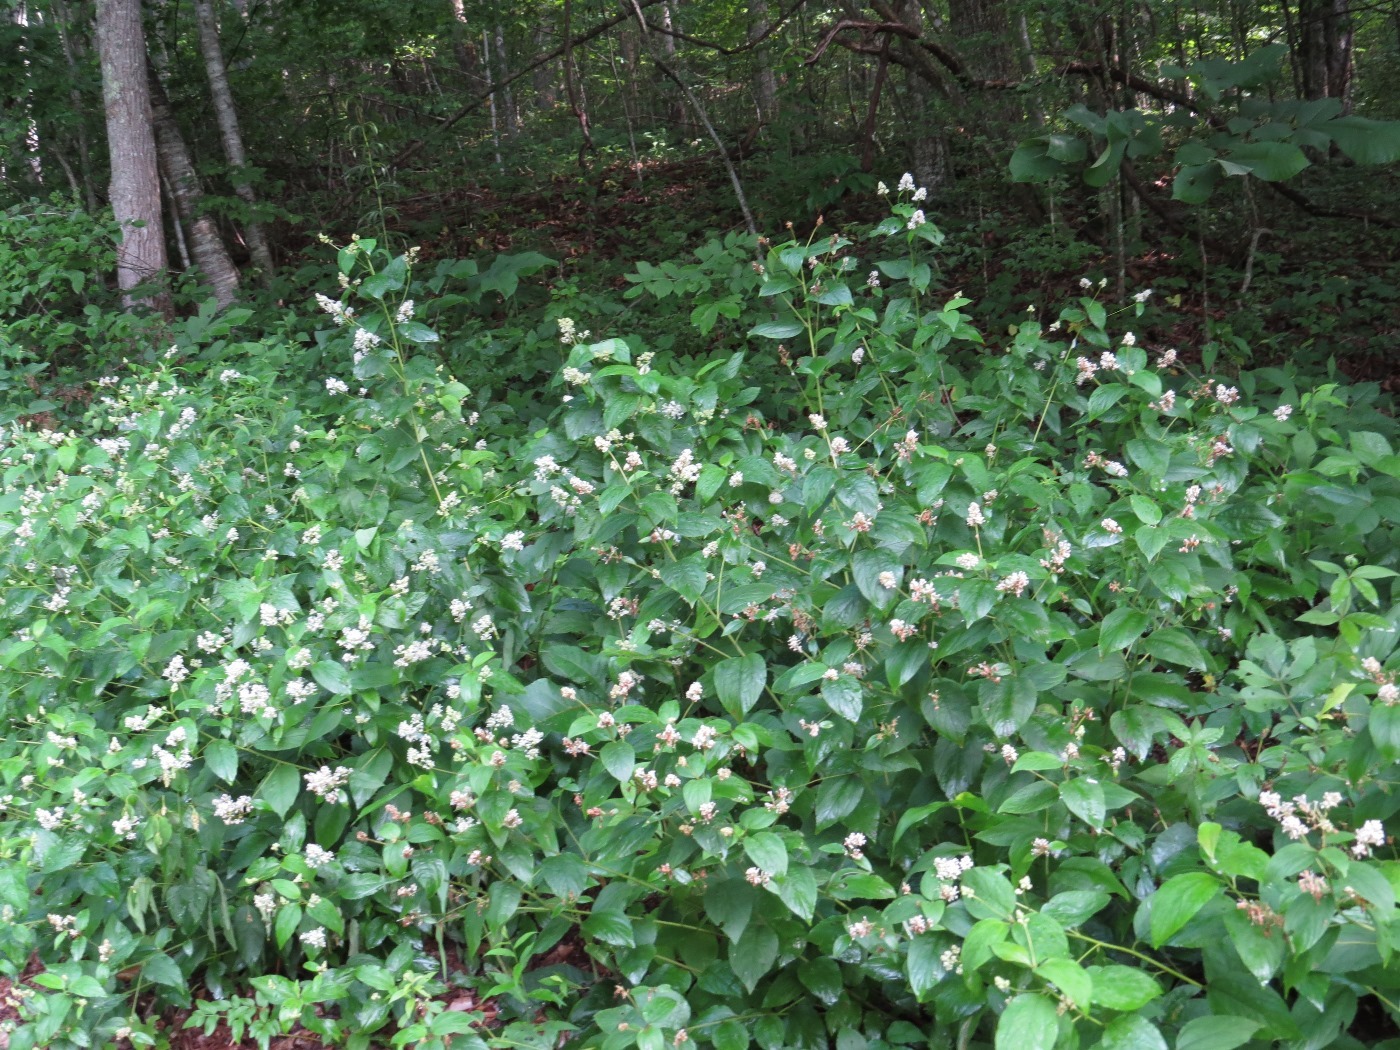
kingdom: Plantae
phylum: Tracheophyta
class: Magnoliopsida
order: Rosales
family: Rhamnaceae
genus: Ceanothus
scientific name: Ceanothus americanus
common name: Redroot
